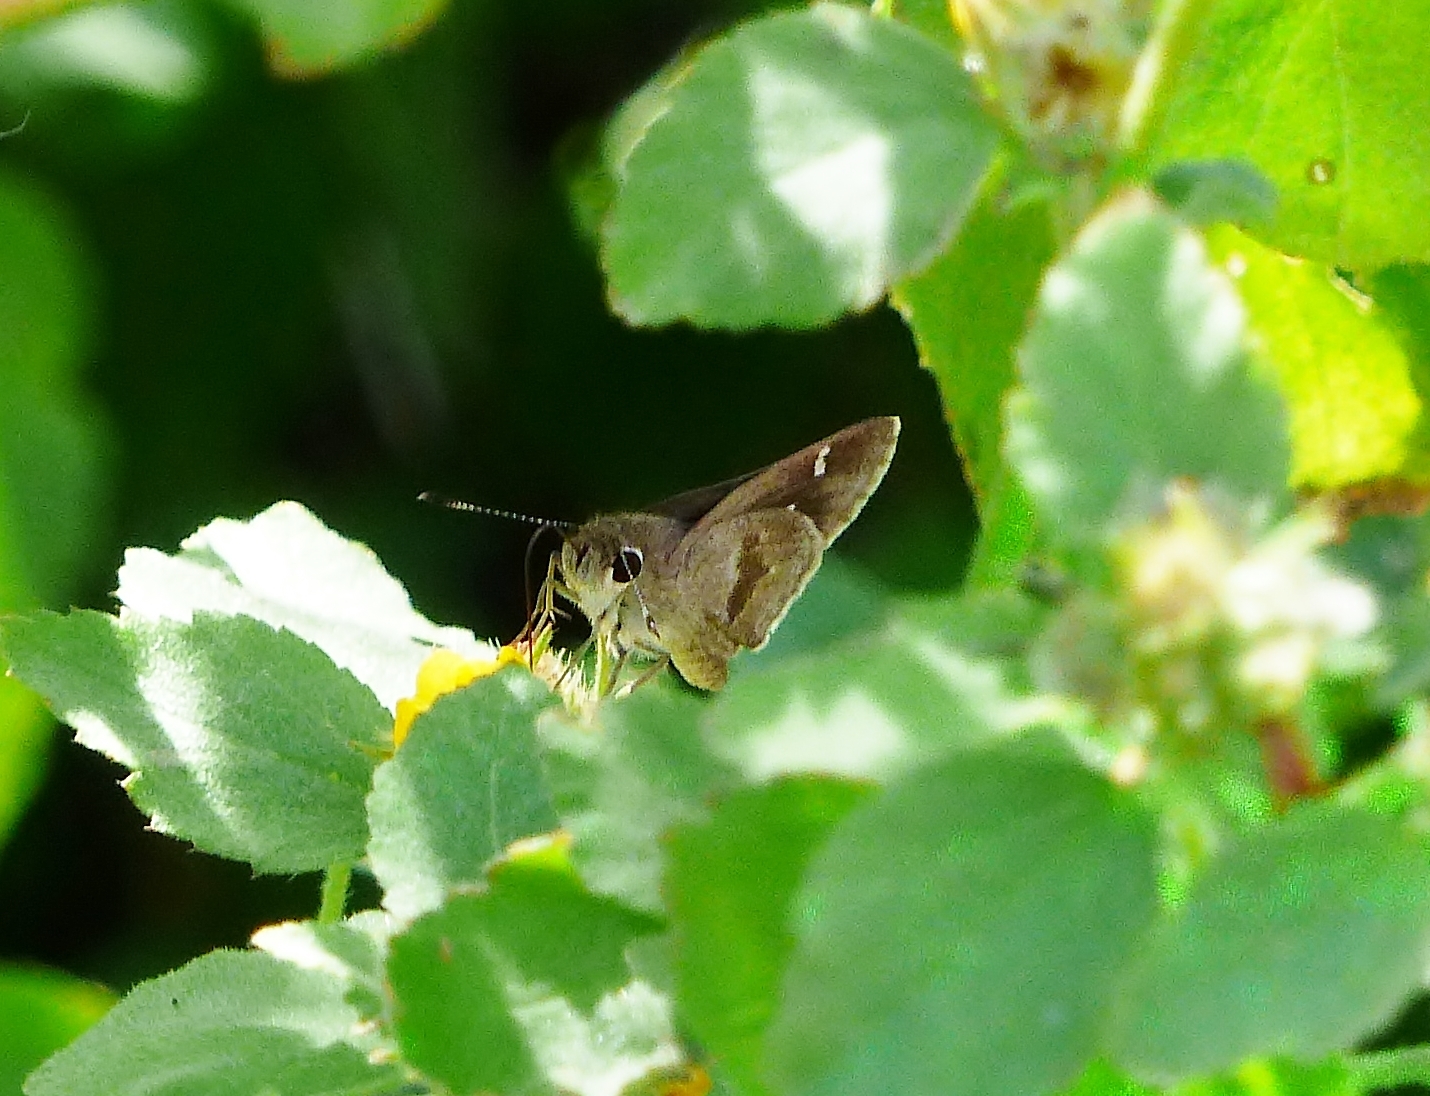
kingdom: Animalia
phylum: Arthropoda
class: Insecta
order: Lepidoptera
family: Hesperiidae
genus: Lerodea
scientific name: Lerodea arabus
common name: Violet-clouded skipper
